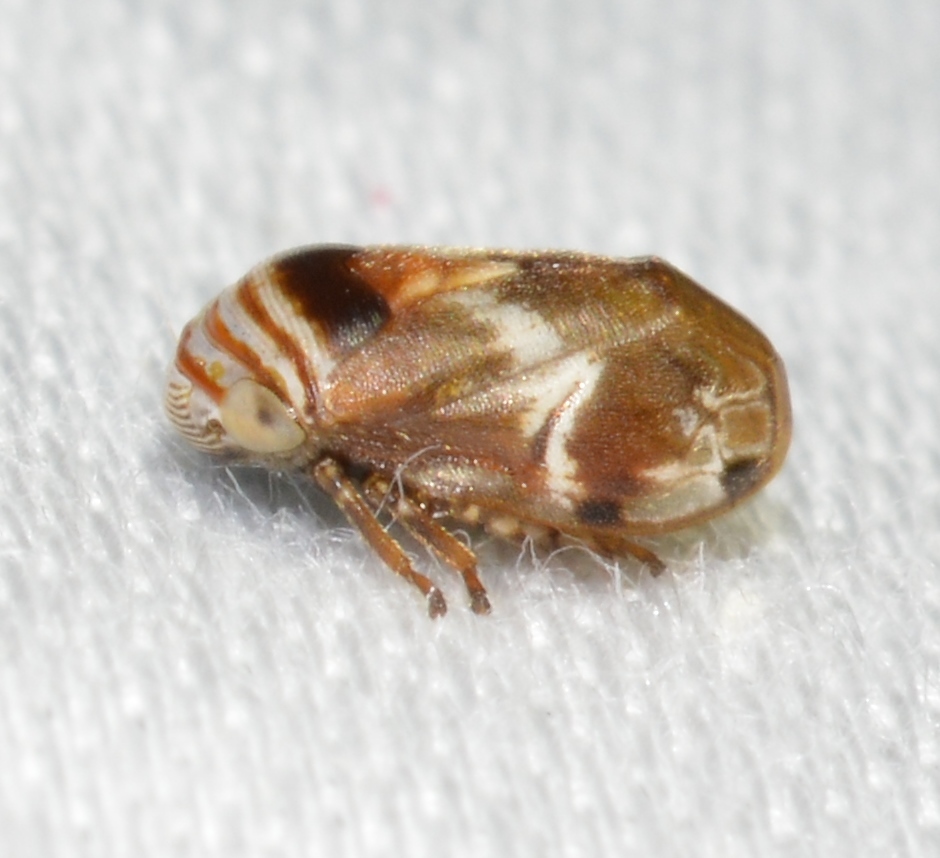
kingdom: Animalia
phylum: Arthropoda
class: Insecta
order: Hemiptera
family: Clastopteridae
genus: Clastoptera
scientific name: Clastoptera obtusa
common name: Alder spittlebug
